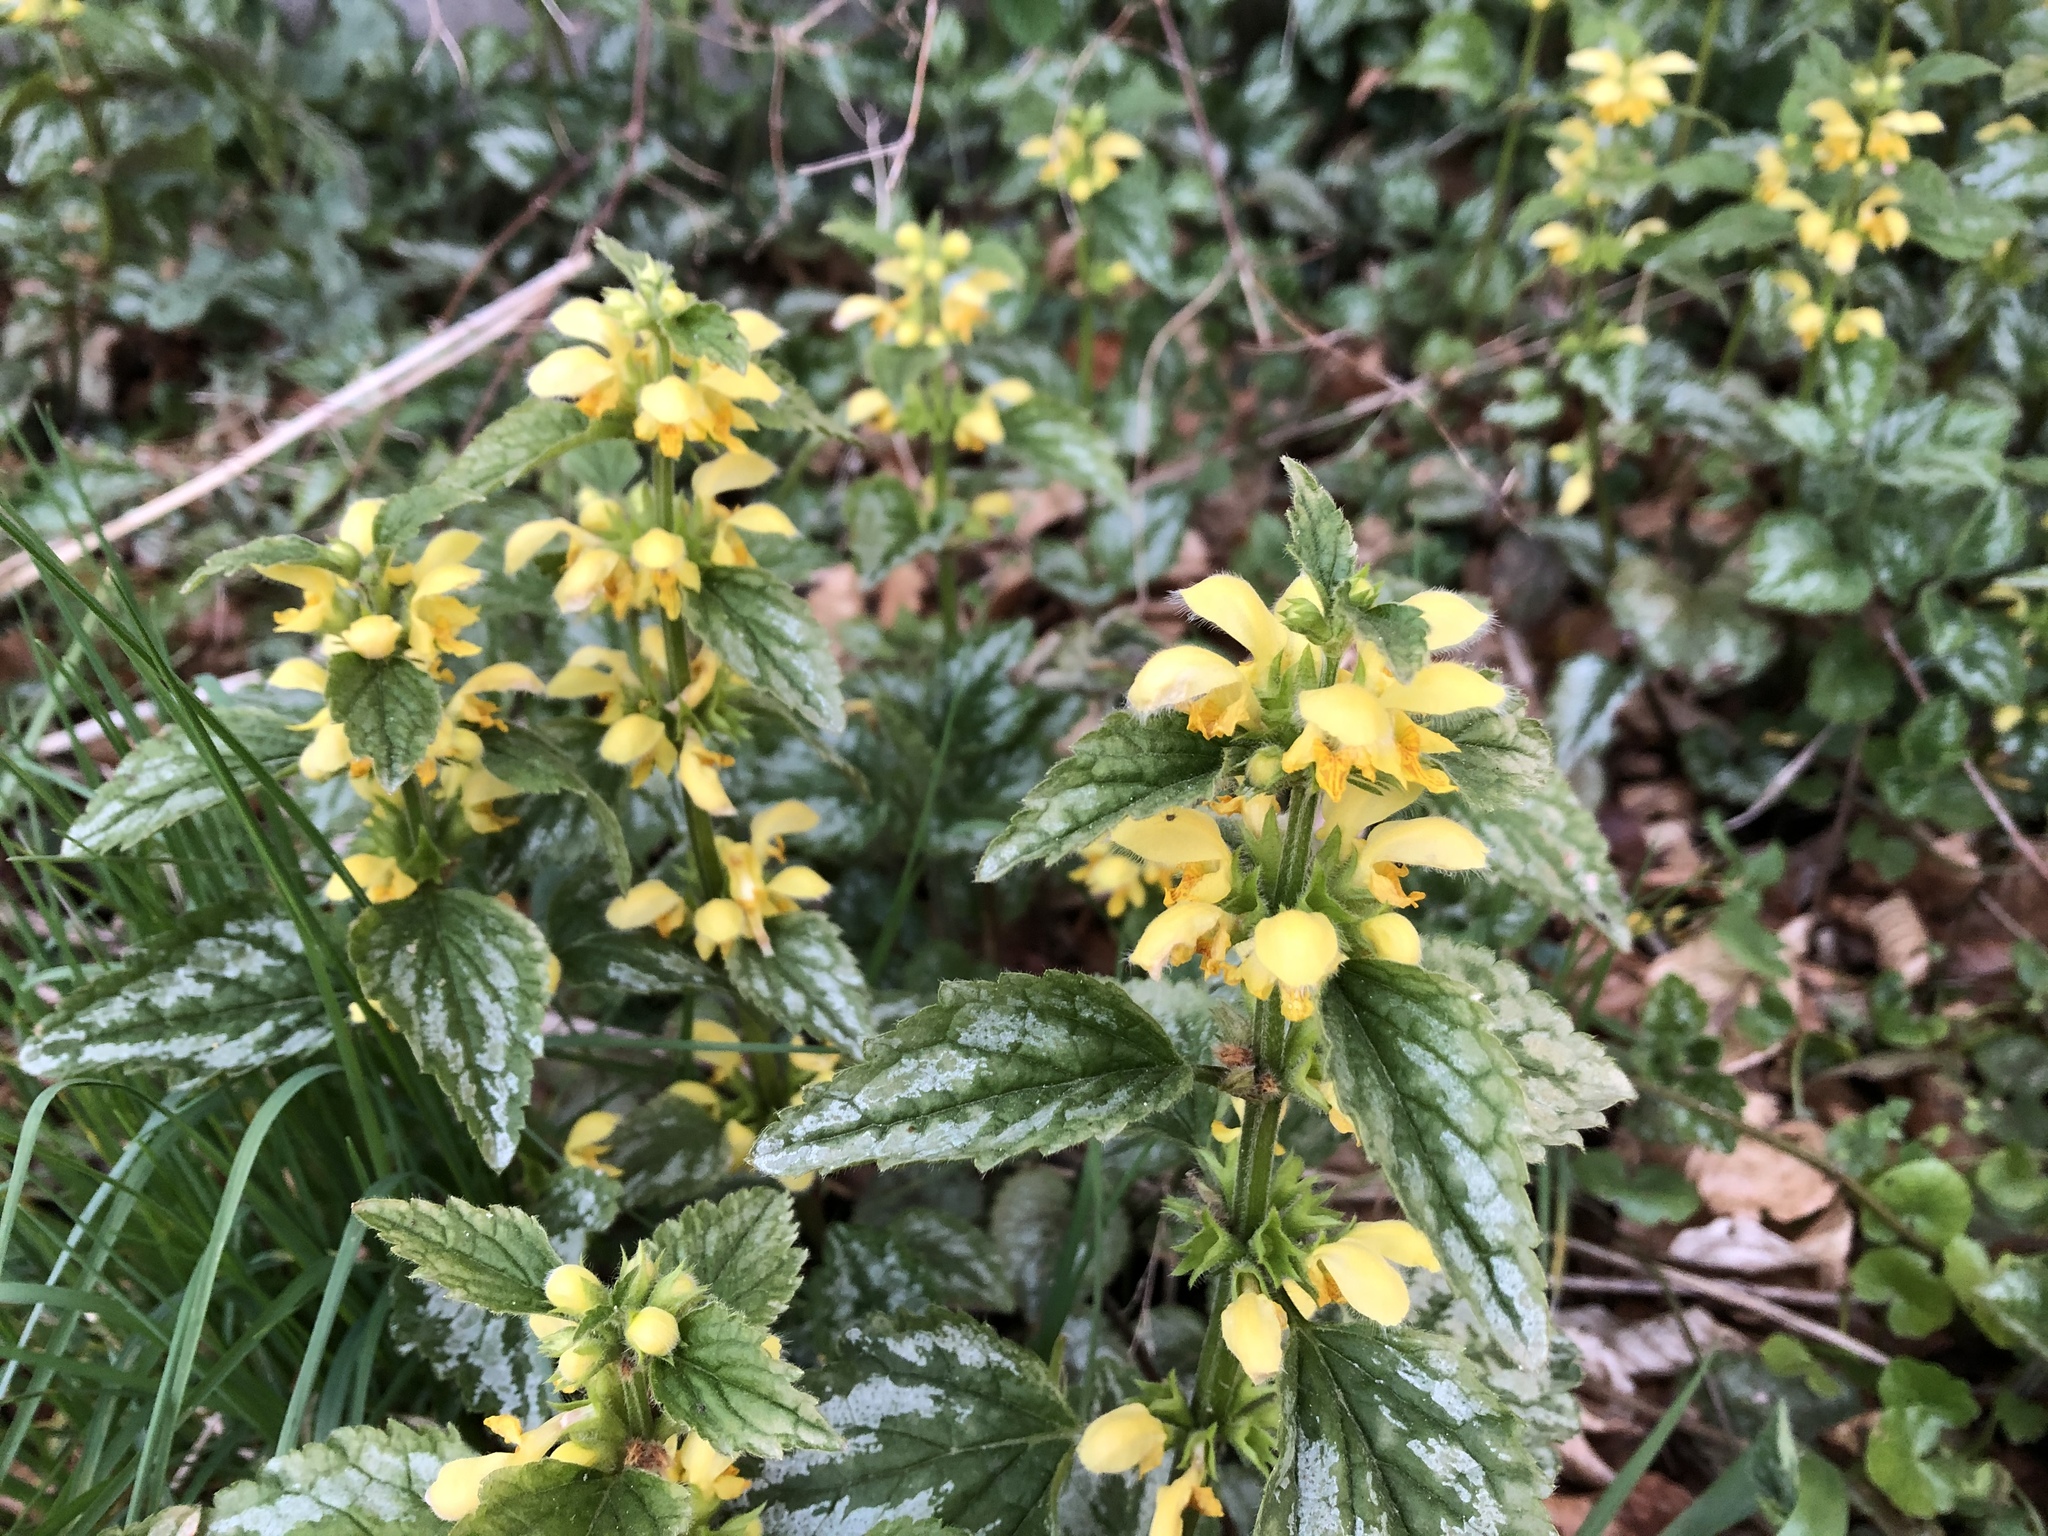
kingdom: Plantae
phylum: Tracheophyta
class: Magnoliopsida
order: Lamiales
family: Lamiaceae
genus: Lamium
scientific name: Lamium galeobdolon
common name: Yellow archangel
